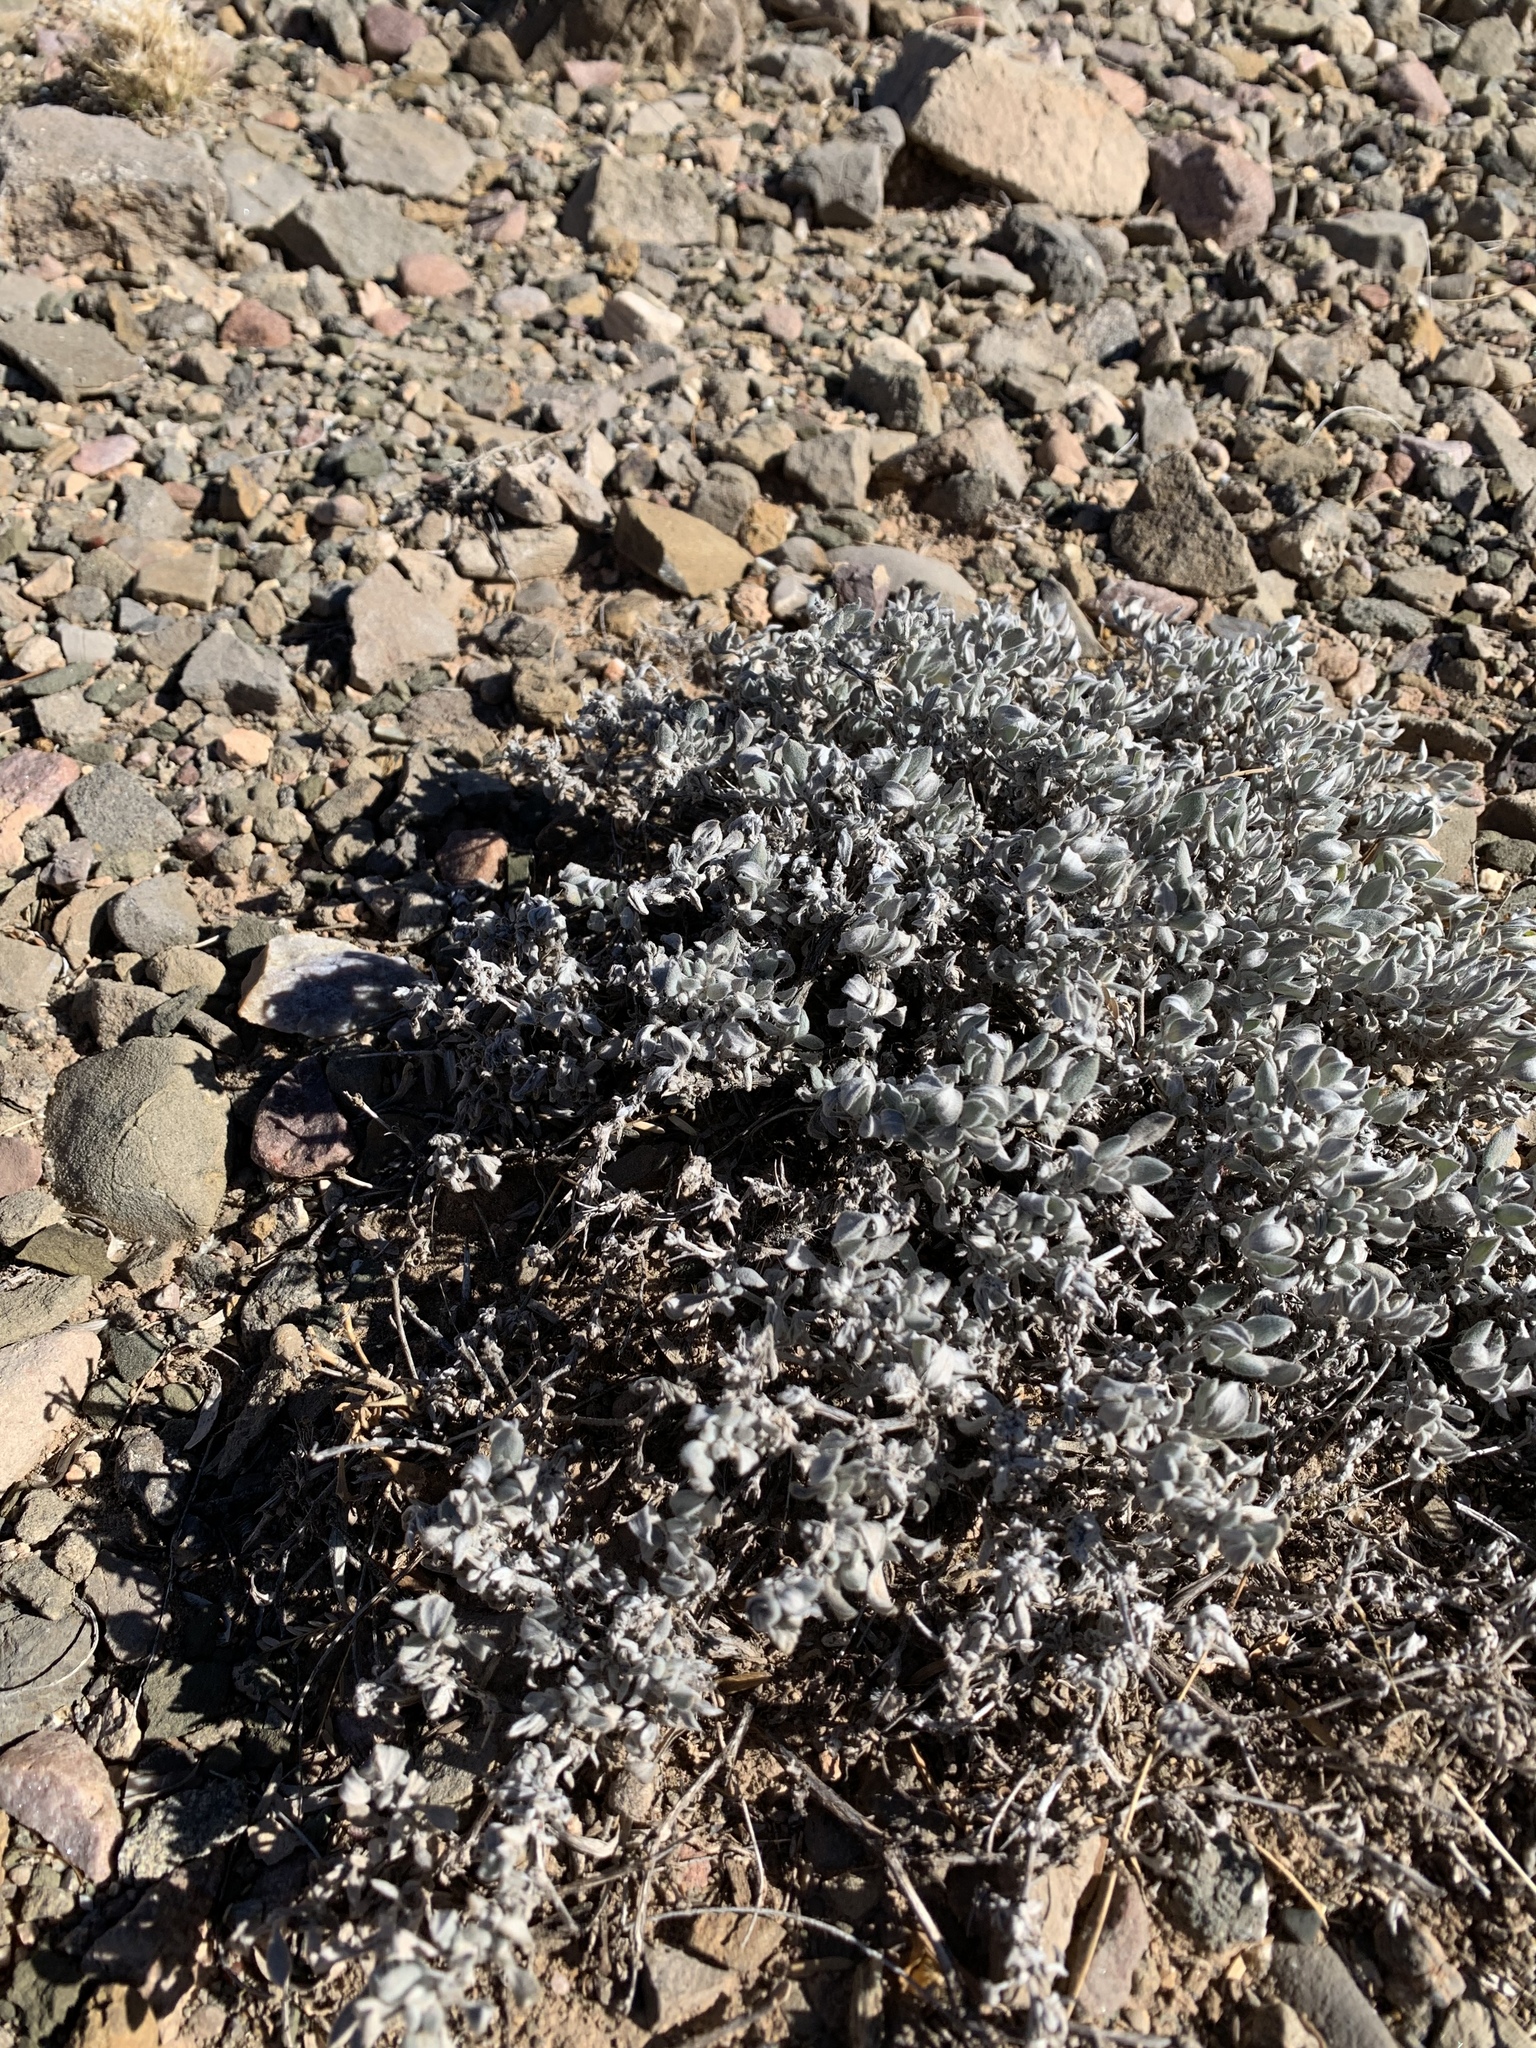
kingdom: Plantae
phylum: Tracheophyta
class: Magnoliopsida
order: Boraginales
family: Ehretiaceae
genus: Tiquilia
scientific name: Tiquilia canescens
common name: Hairy tiquilia
